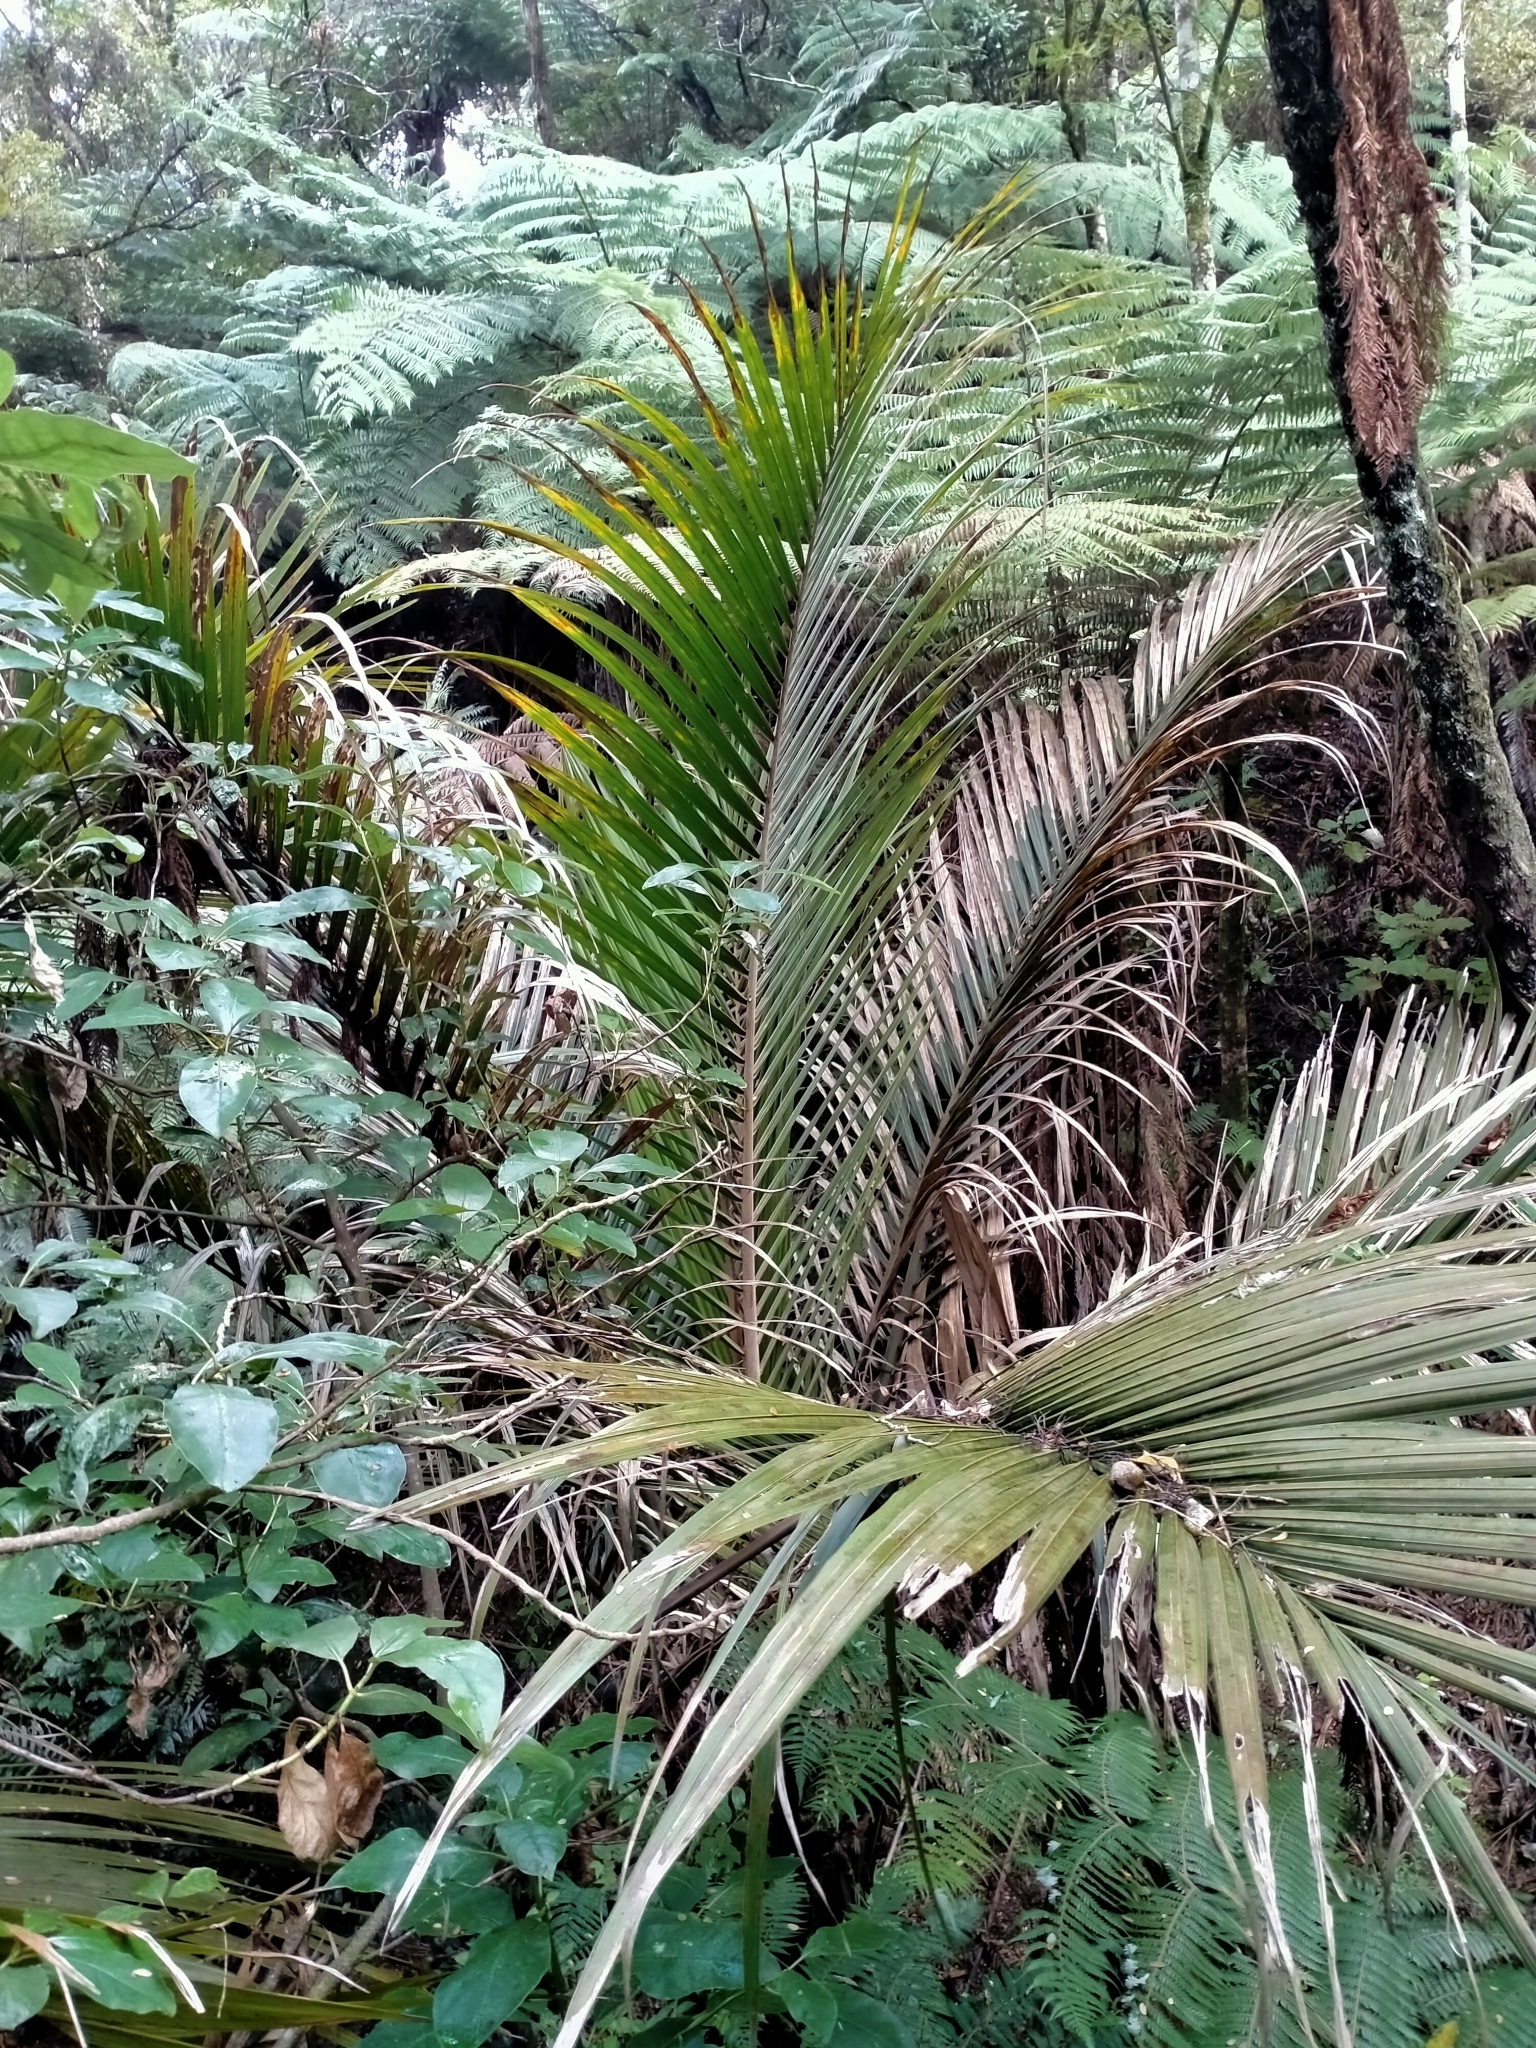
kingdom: Plantae
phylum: Tracheophyta
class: Liliopsida
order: Arecales
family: Arecaceae
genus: Rhopalostylis
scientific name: Rhopalostylis sapida
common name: Feather-duster palm
